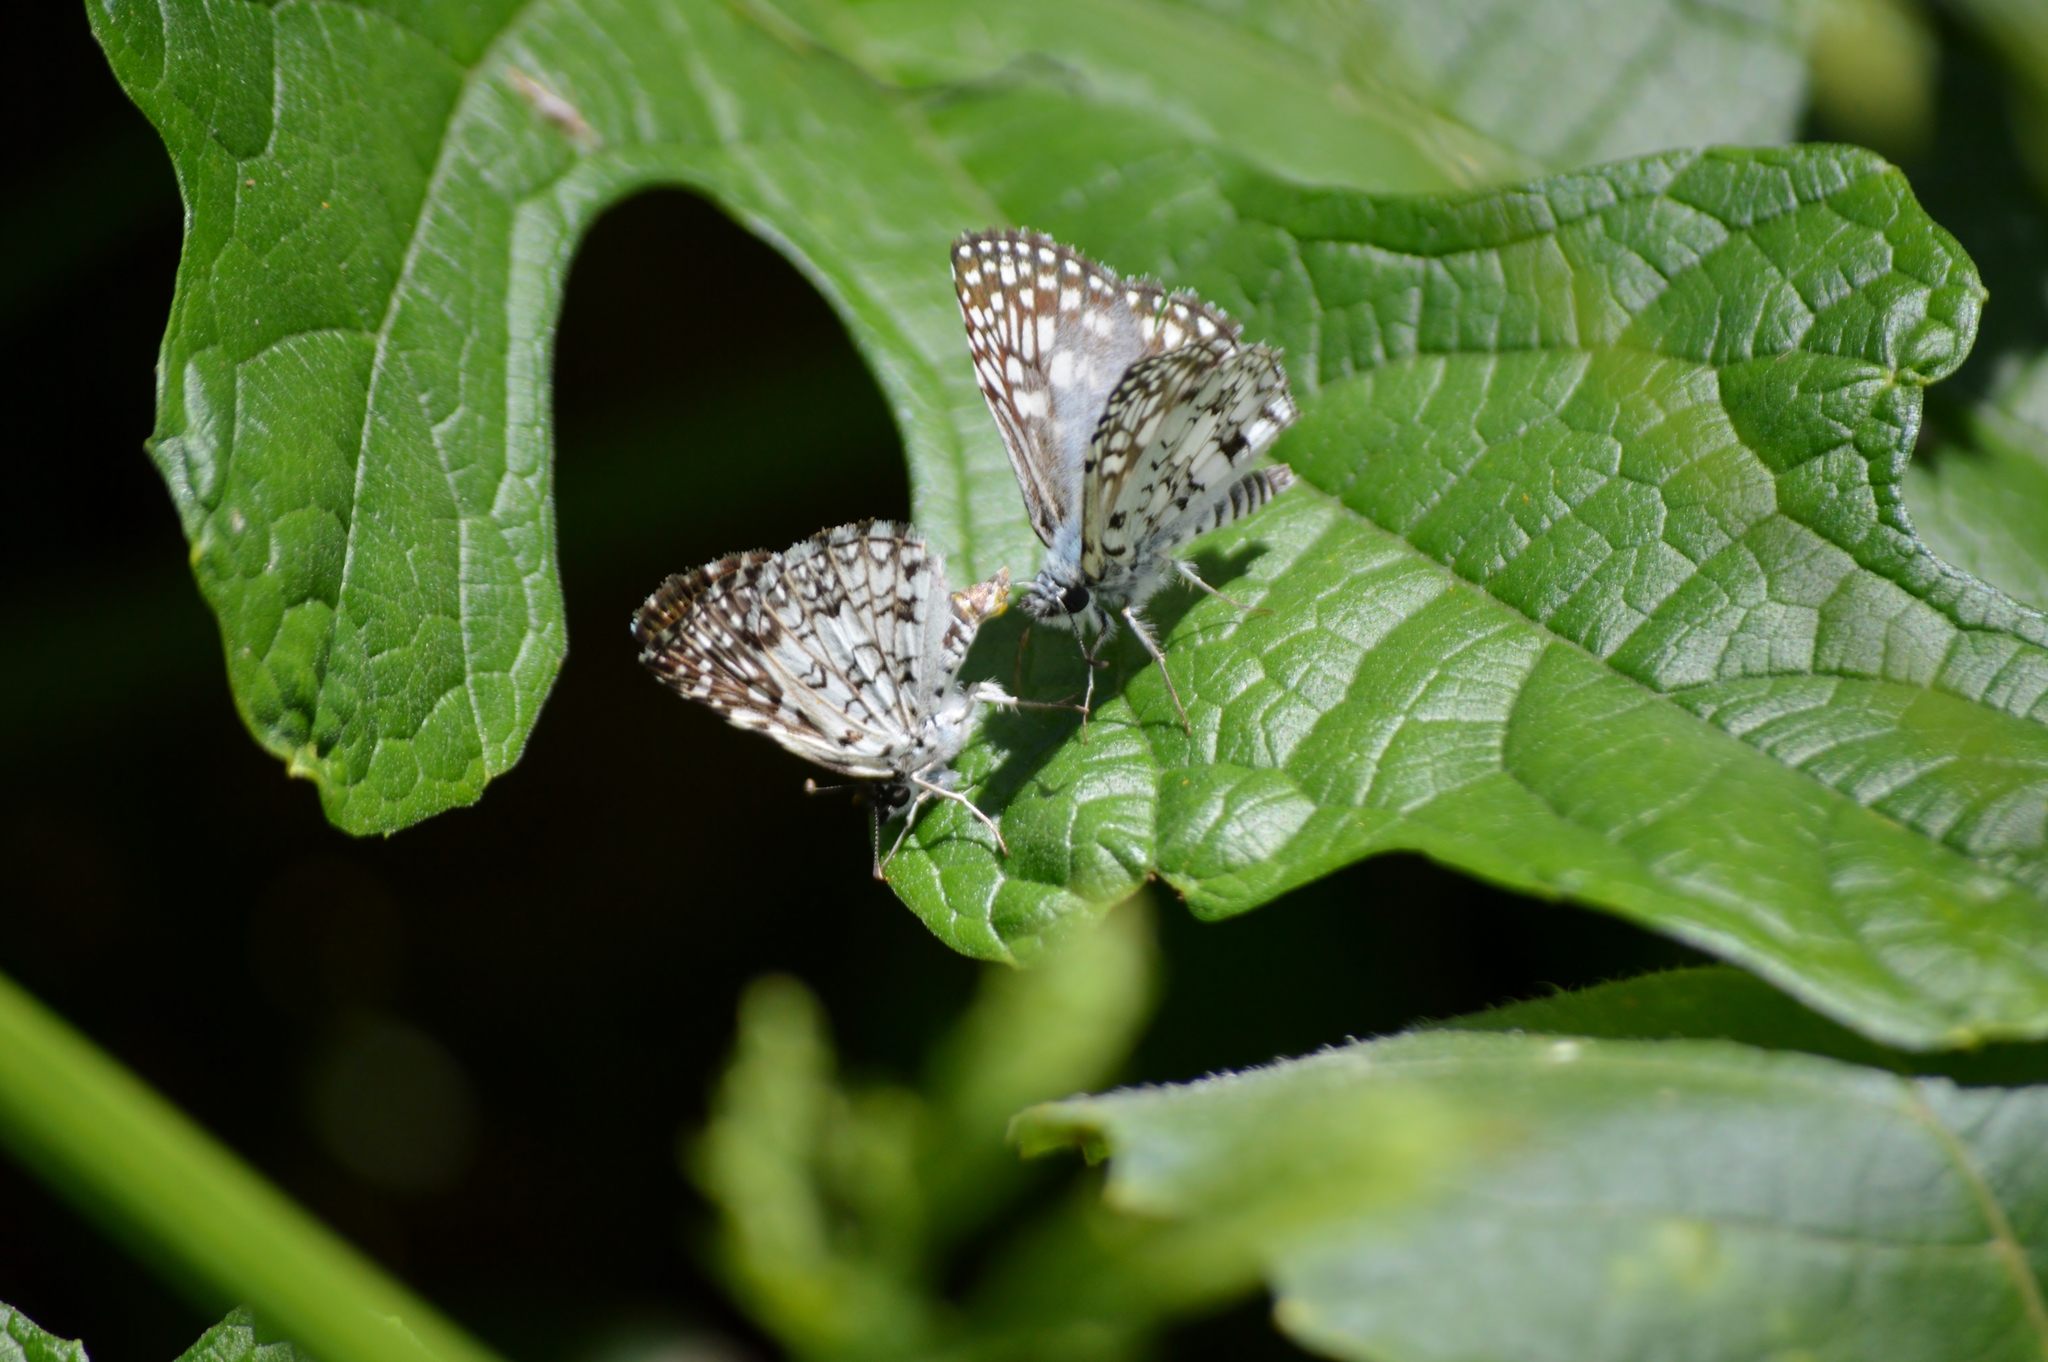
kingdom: Animalia
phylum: Arthropoda
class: Insecta
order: Lepidoptera
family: Hesperiidae
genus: Pyrgus
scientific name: Pyrgus oileus
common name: Tropical checkered-skipper
